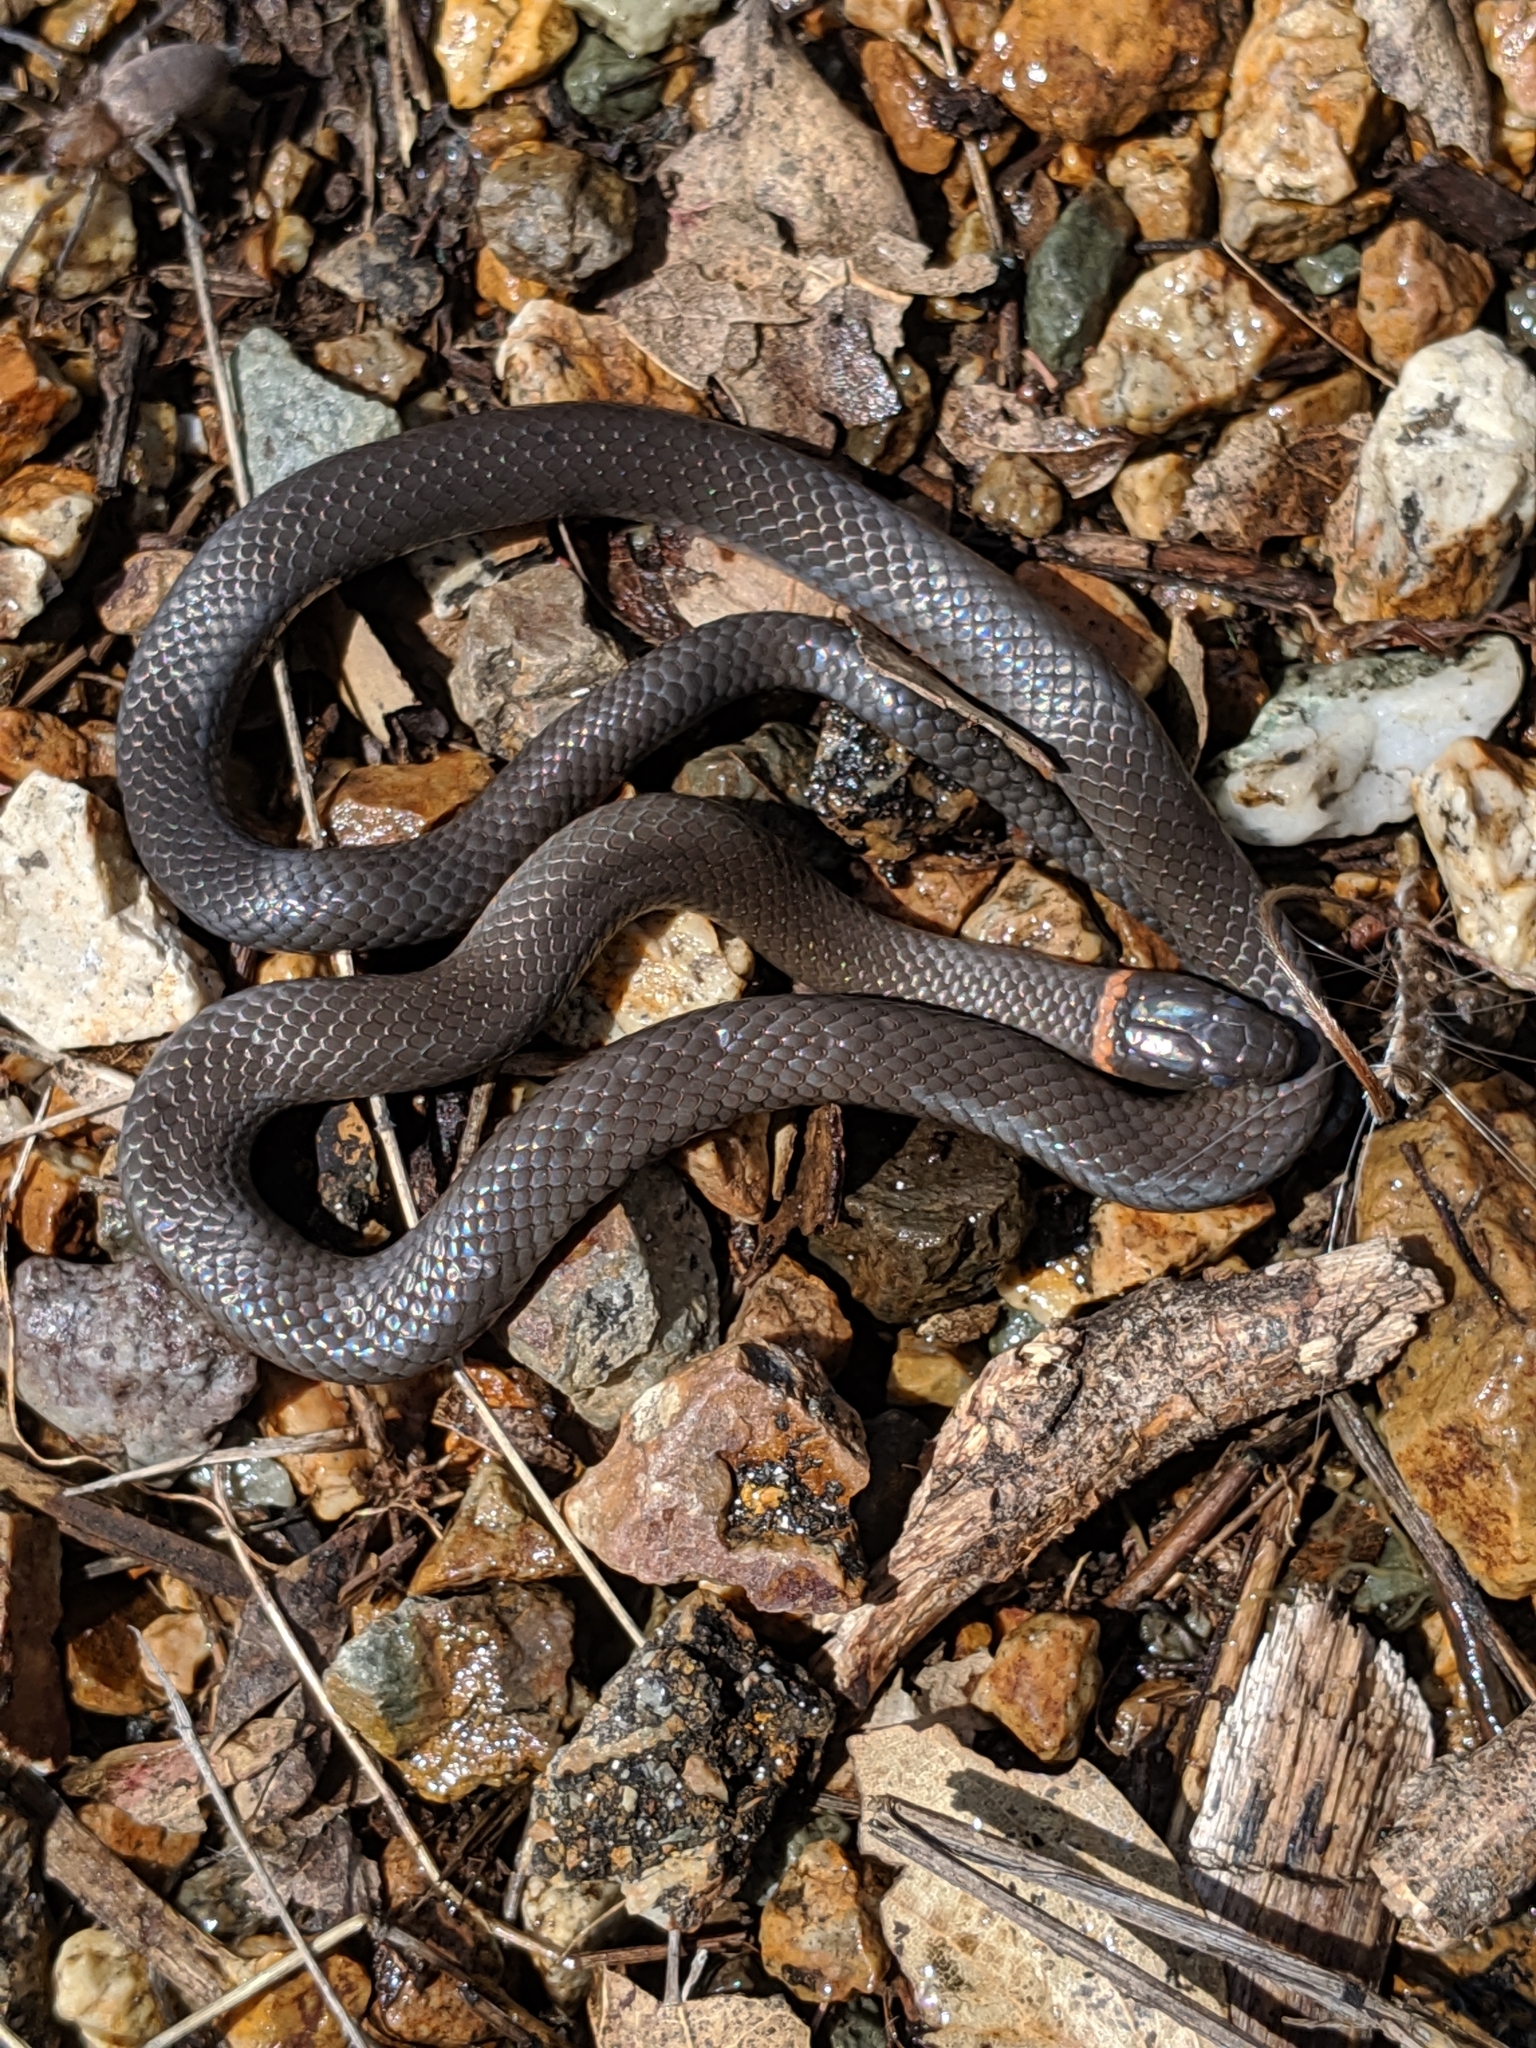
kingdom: Animalia
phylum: Chordata
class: Squamata
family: Colubridae
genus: Diadophis
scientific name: Diadophis punctatus
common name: Ringneck snake
